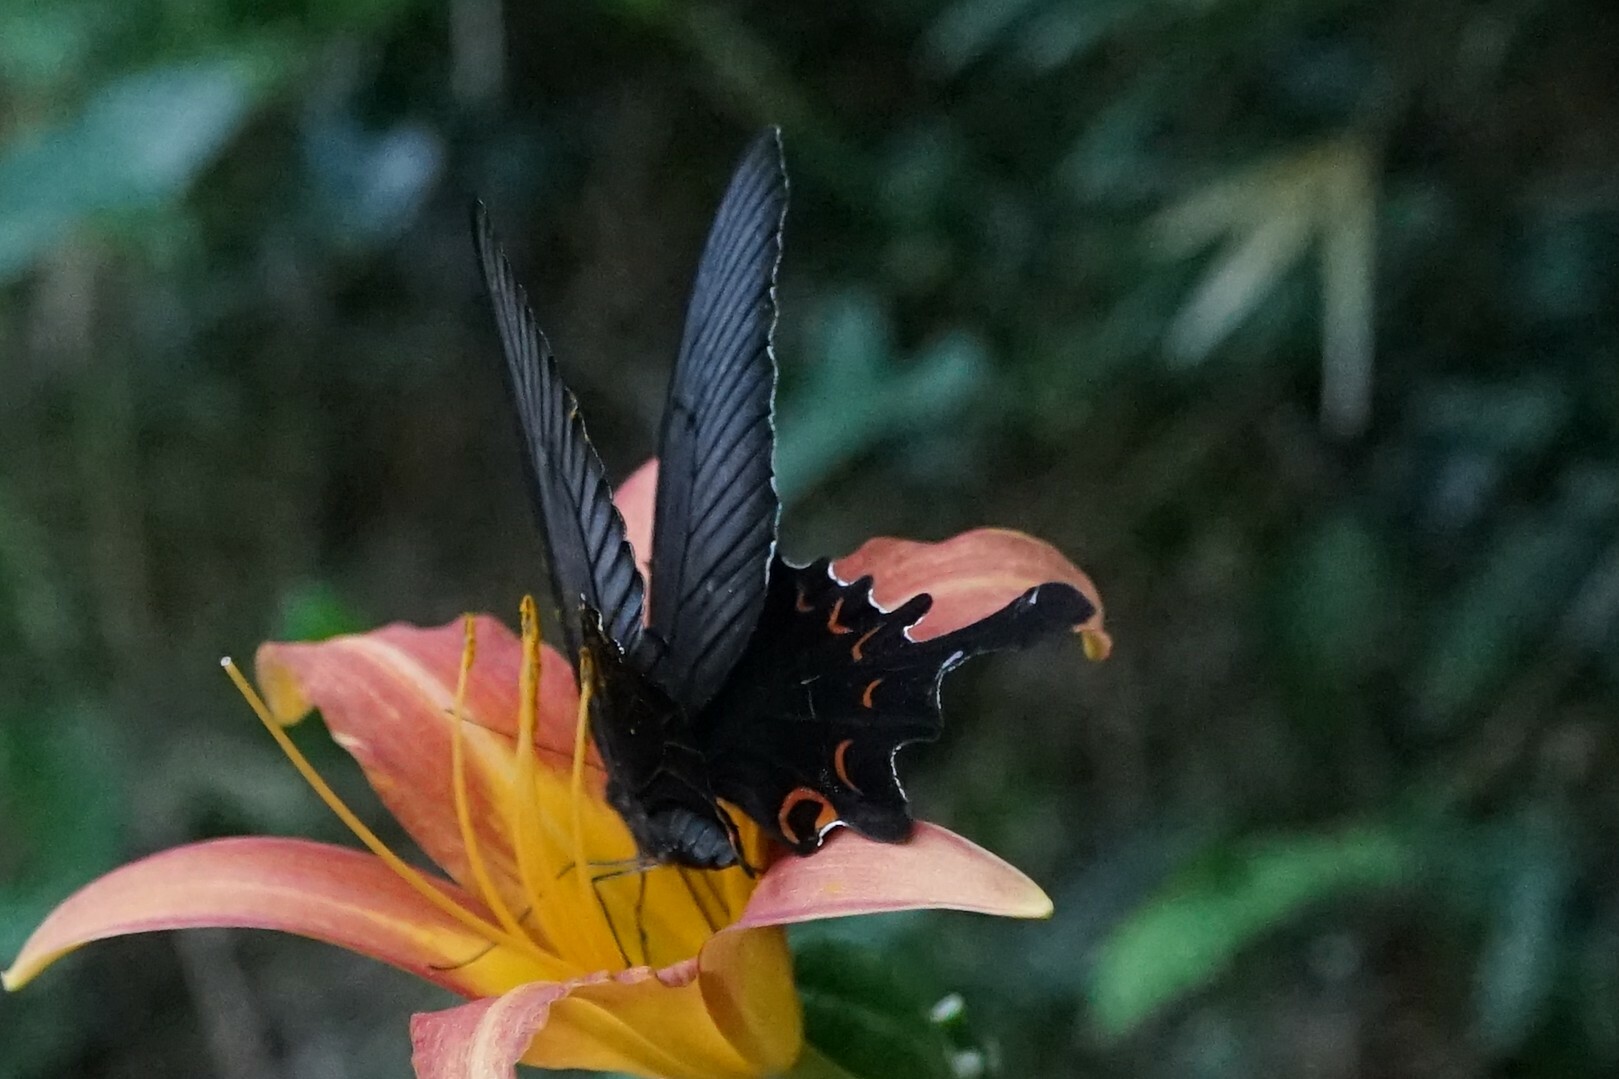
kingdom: Animalia
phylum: Arthropoda
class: Insecta
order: Lepidoptera
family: Papilionidae
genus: Papilio
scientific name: Papilio macilentus
